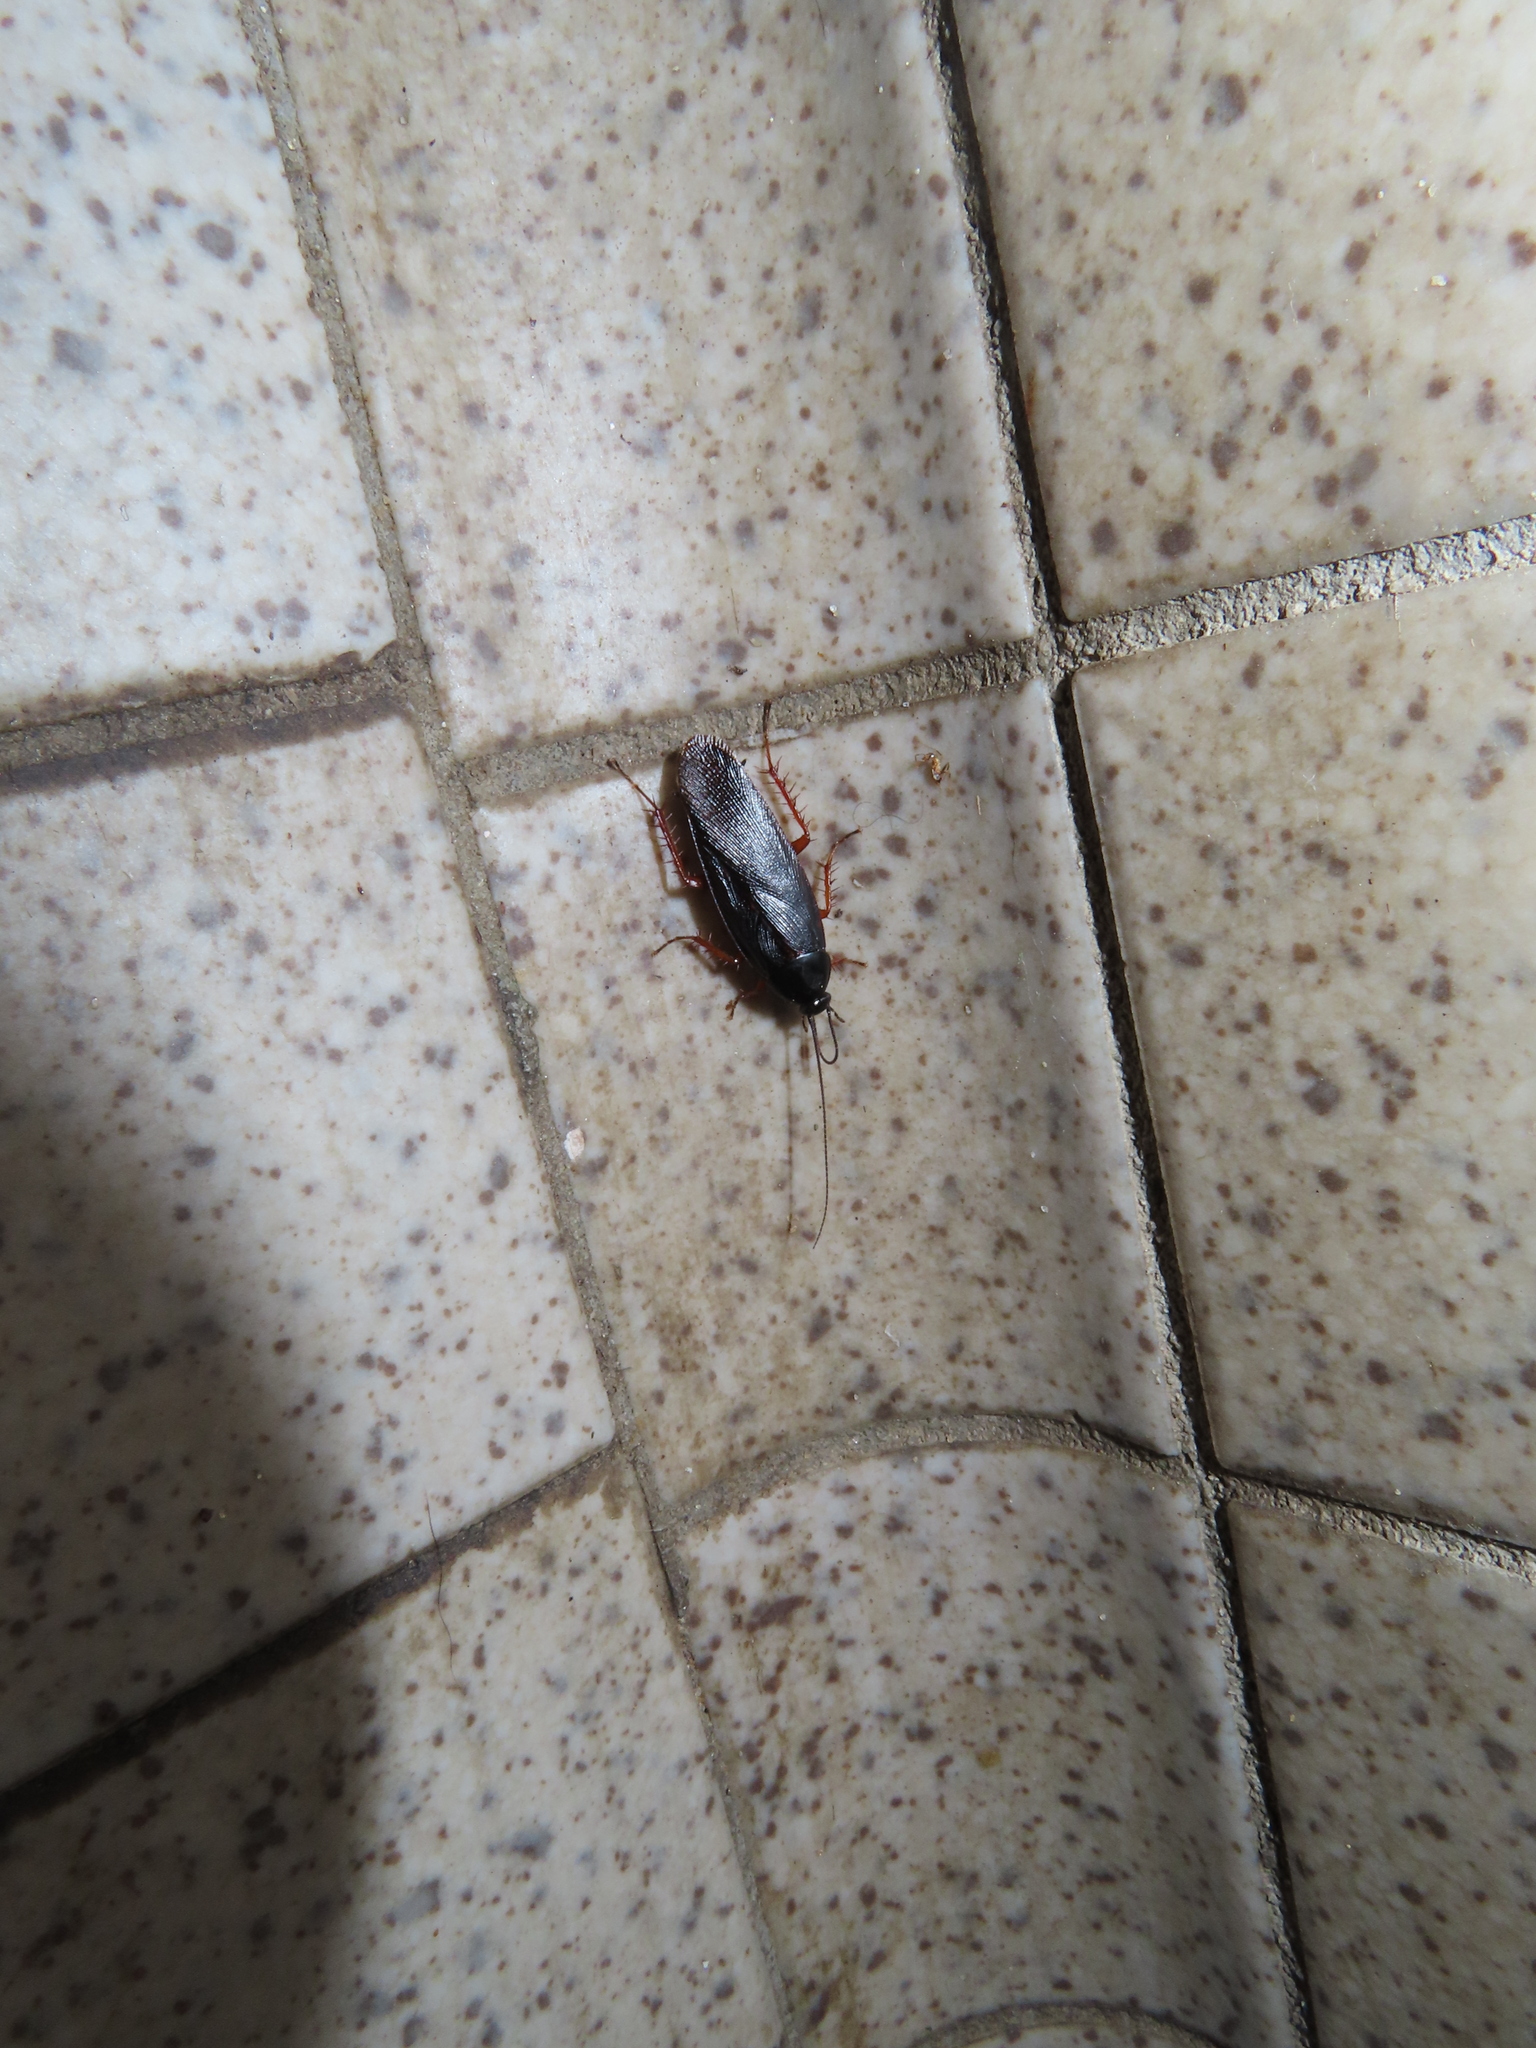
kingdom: Animalia
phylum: Arthropoda
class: Insecta
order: Blattodea
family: Ectobiidae
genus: Ischnoptera
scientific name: Ischnoptera deropeltiformis
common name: Dark wood cockroach
